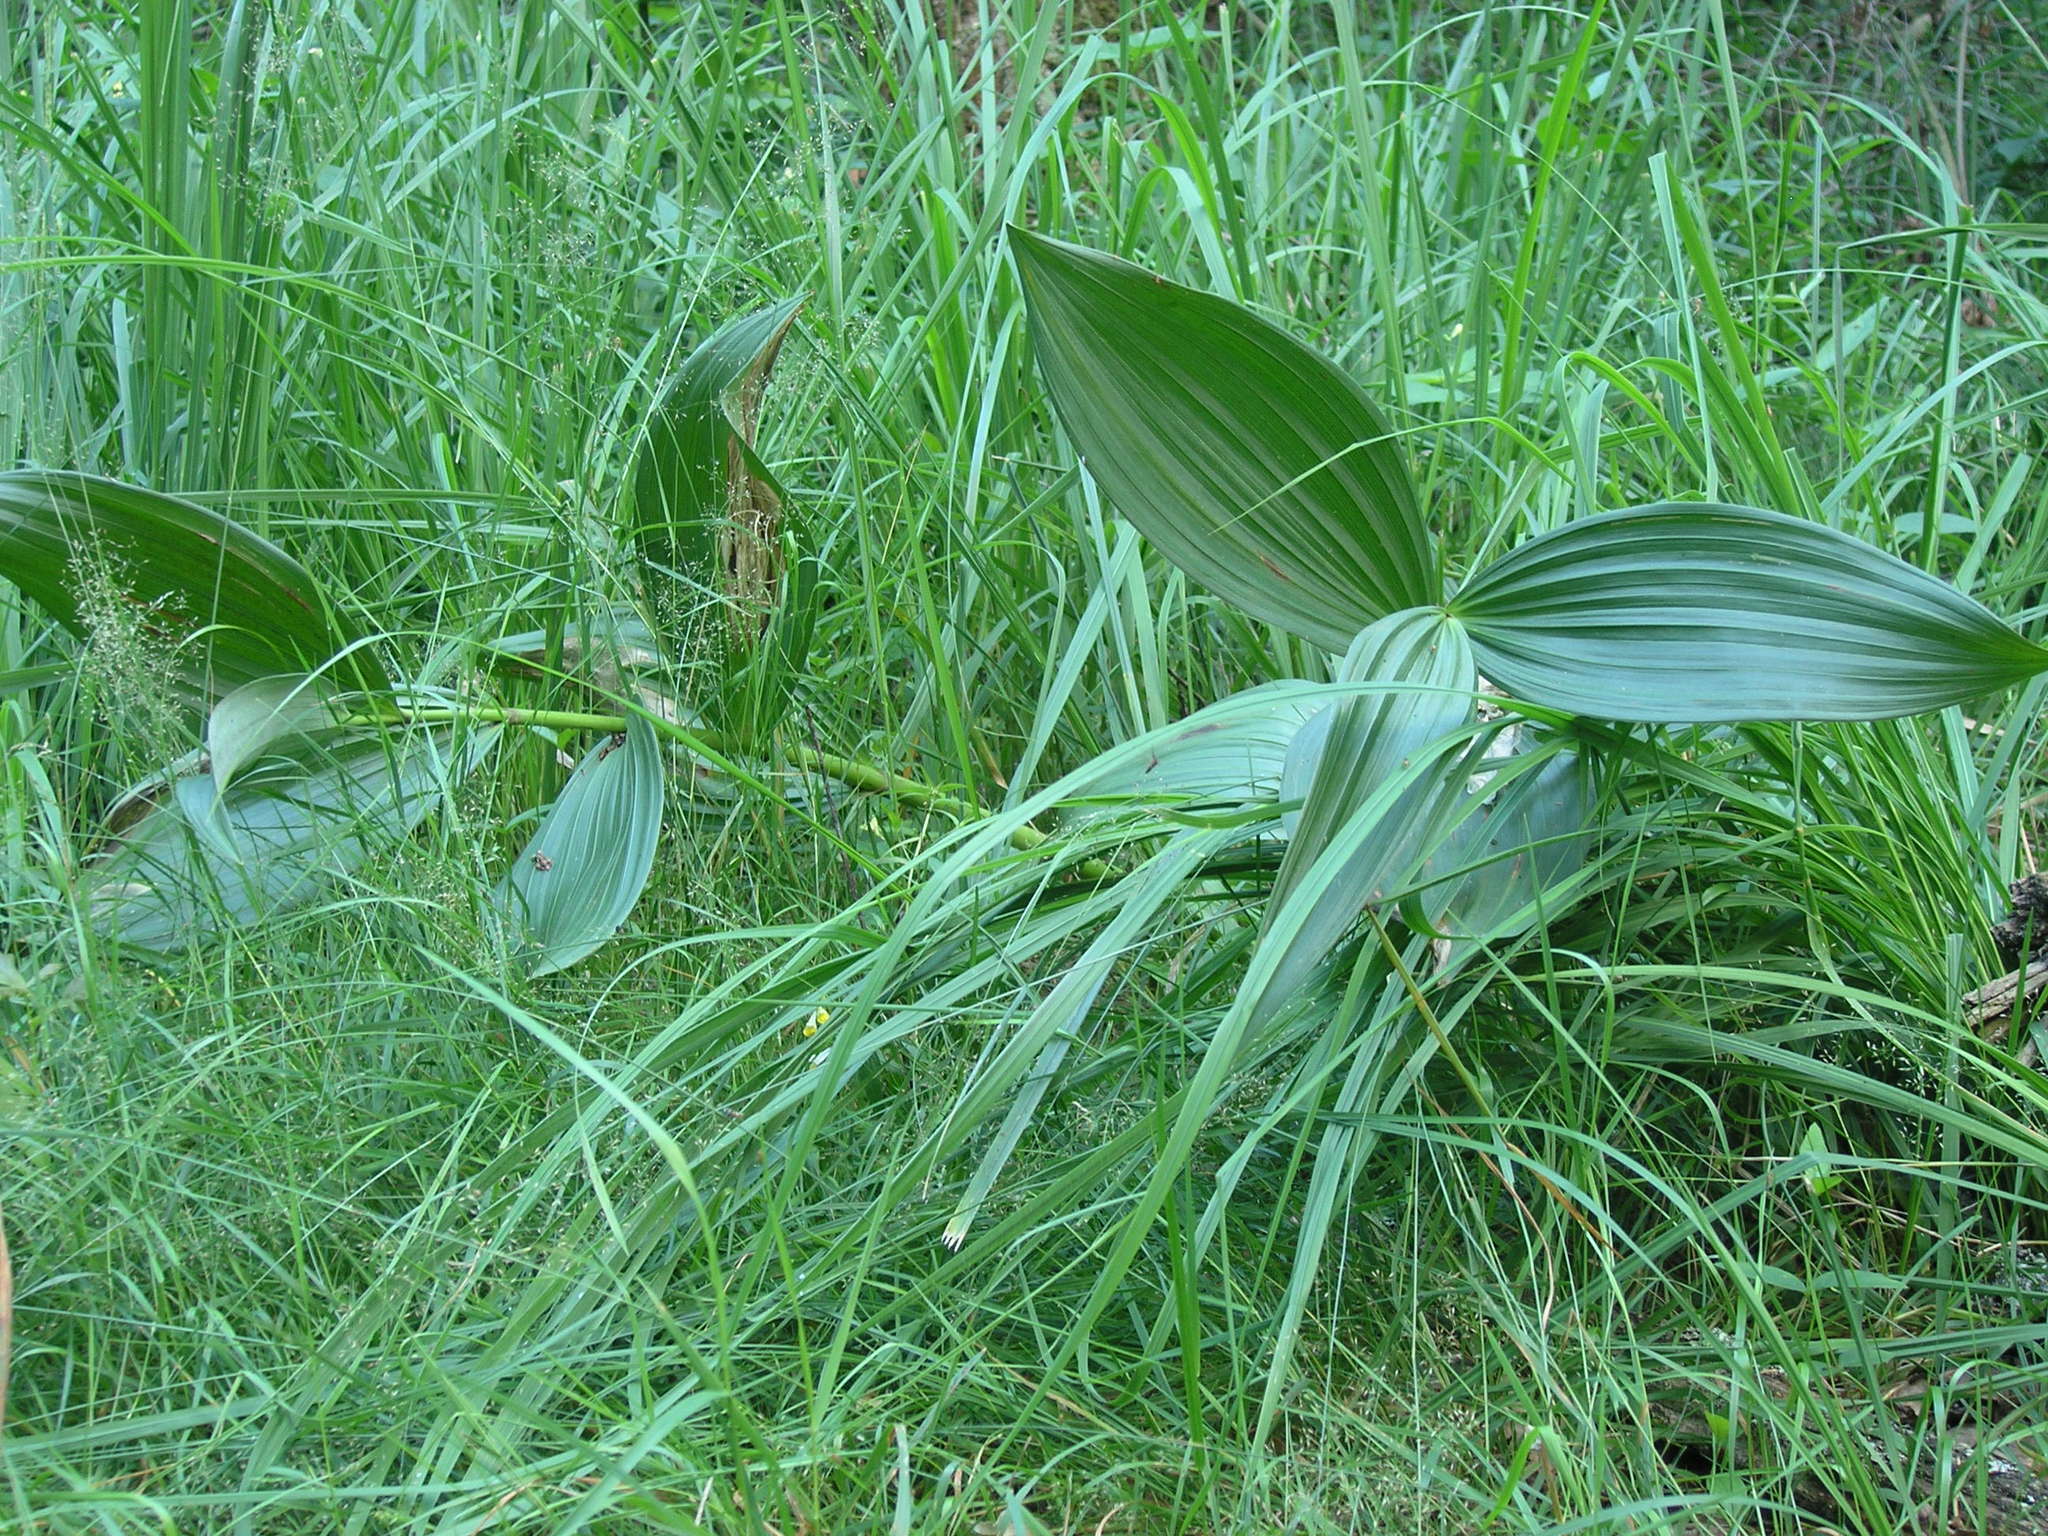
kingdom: Plantae
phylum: Tracheophyta
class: Liliopsida
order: Liliales
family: Melanthiaceae
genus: Veratrum
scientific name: Veratrum lobelianum
